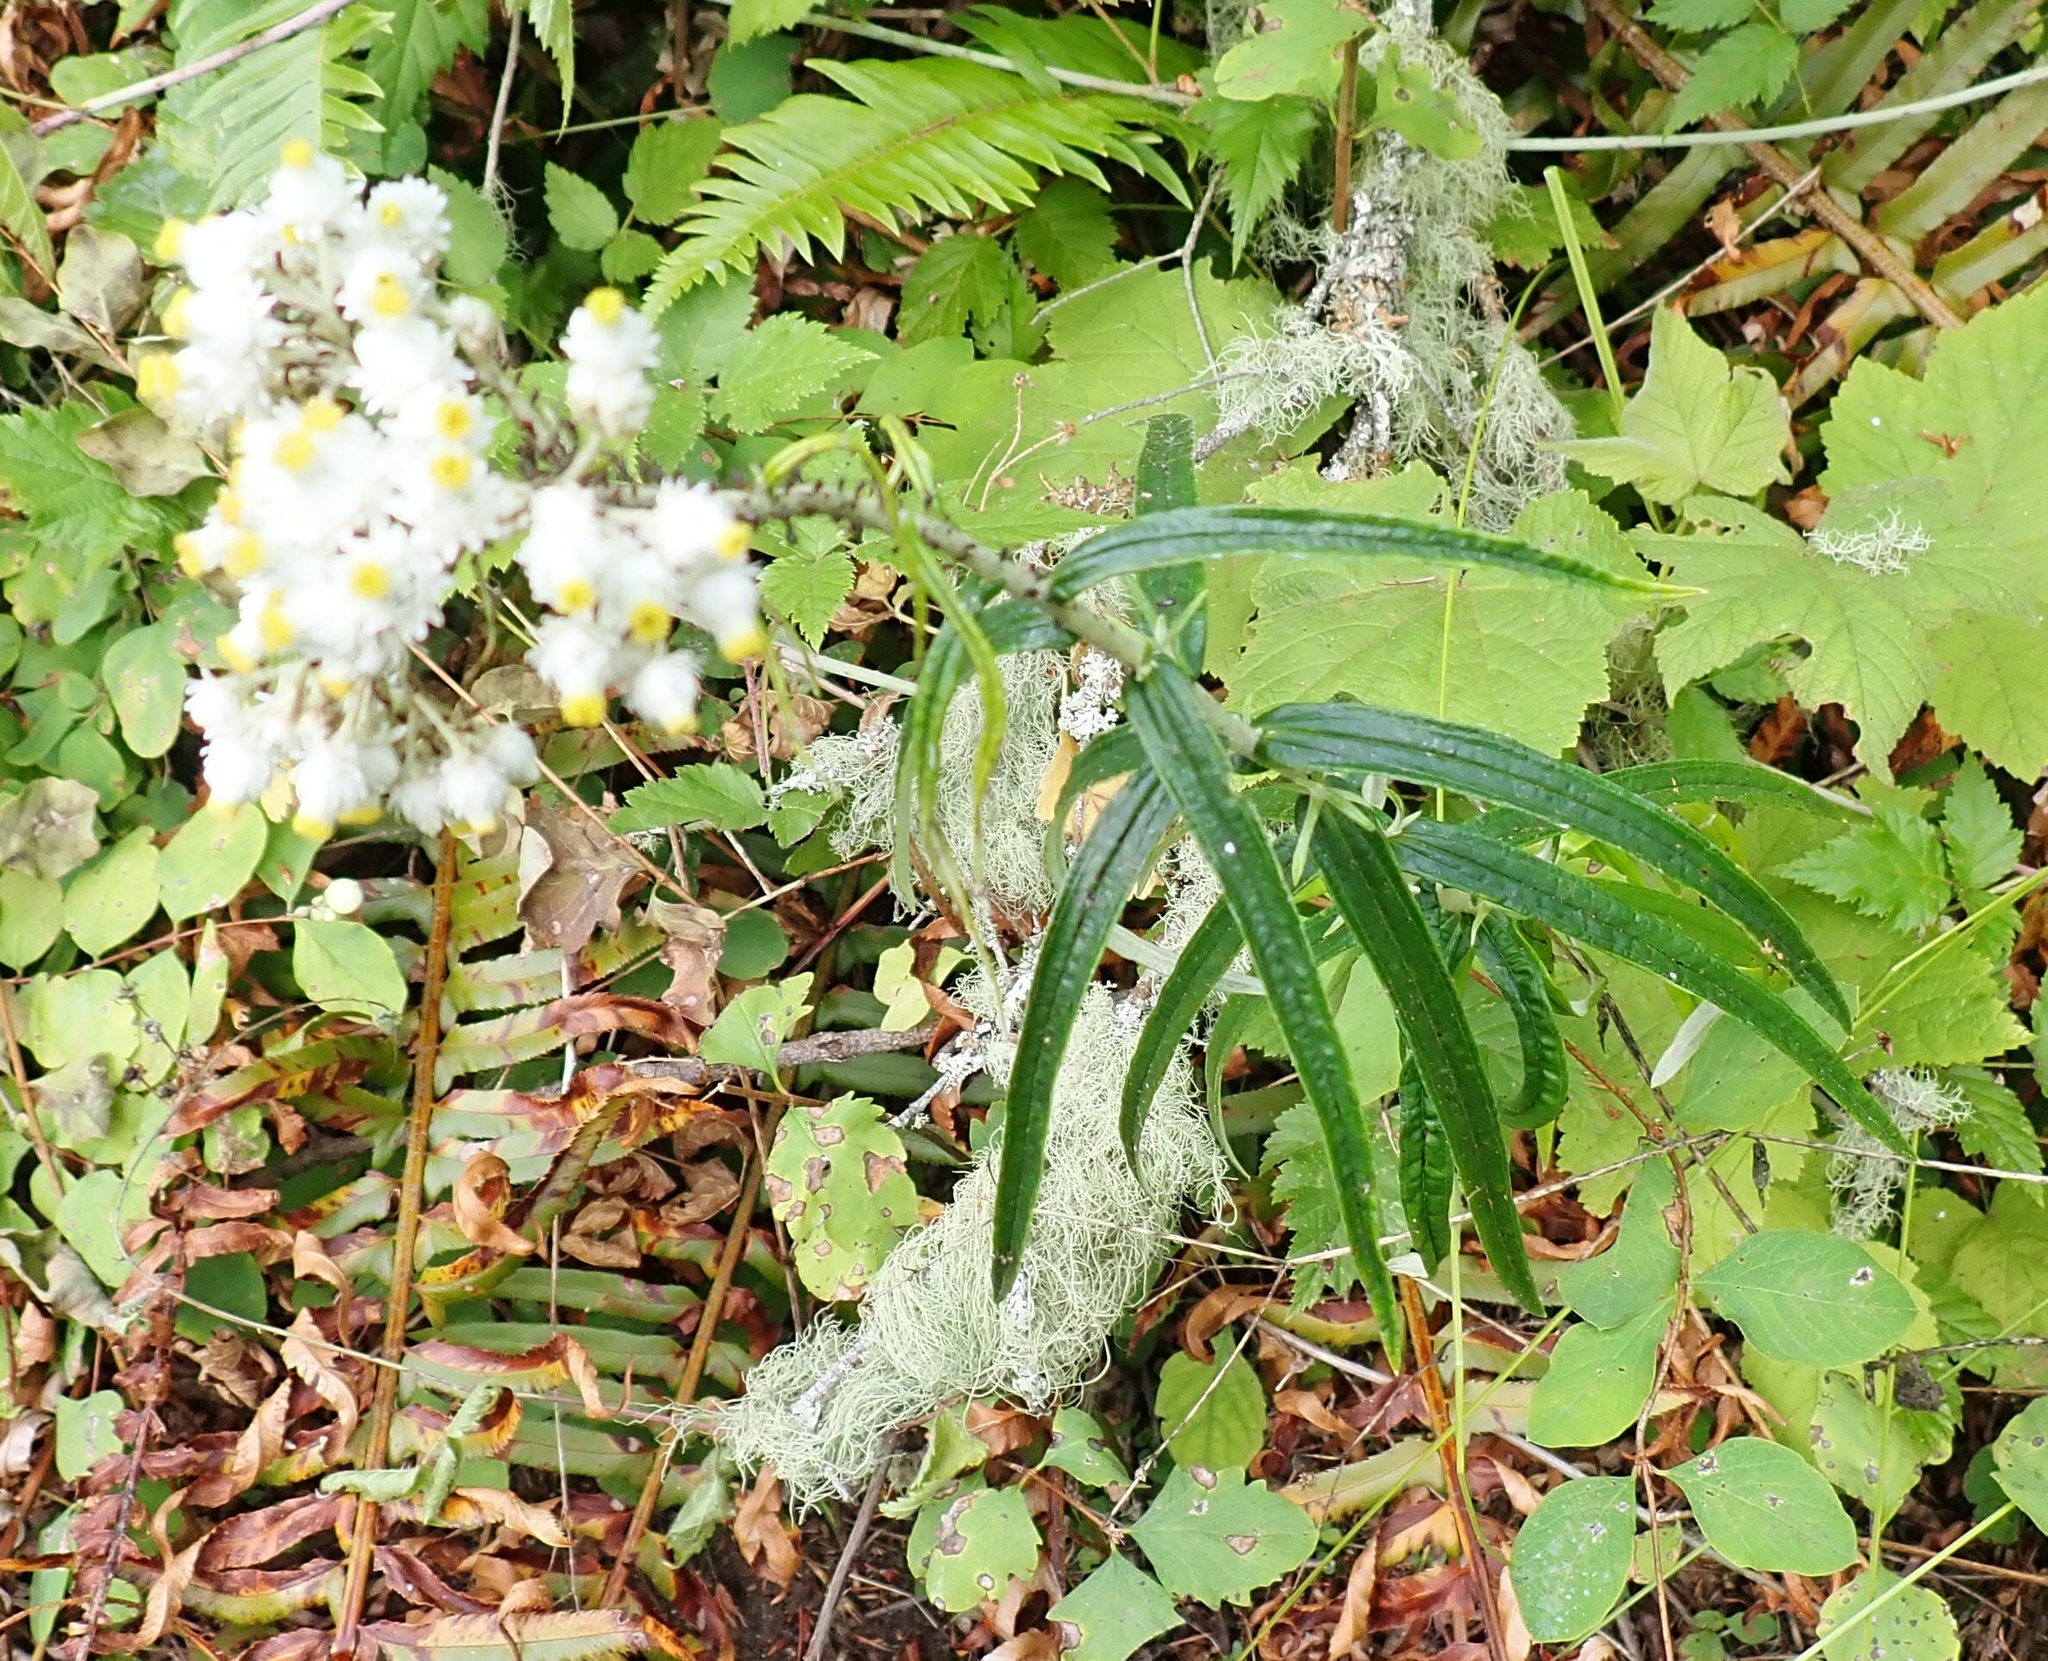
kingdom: Plantae
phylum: Tracheophyta
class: Magnoliopsida
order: Asterales
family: Asteraceae
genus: Anaphalis
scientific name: Anaphalis margaritacea
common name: Pearly everlasting
